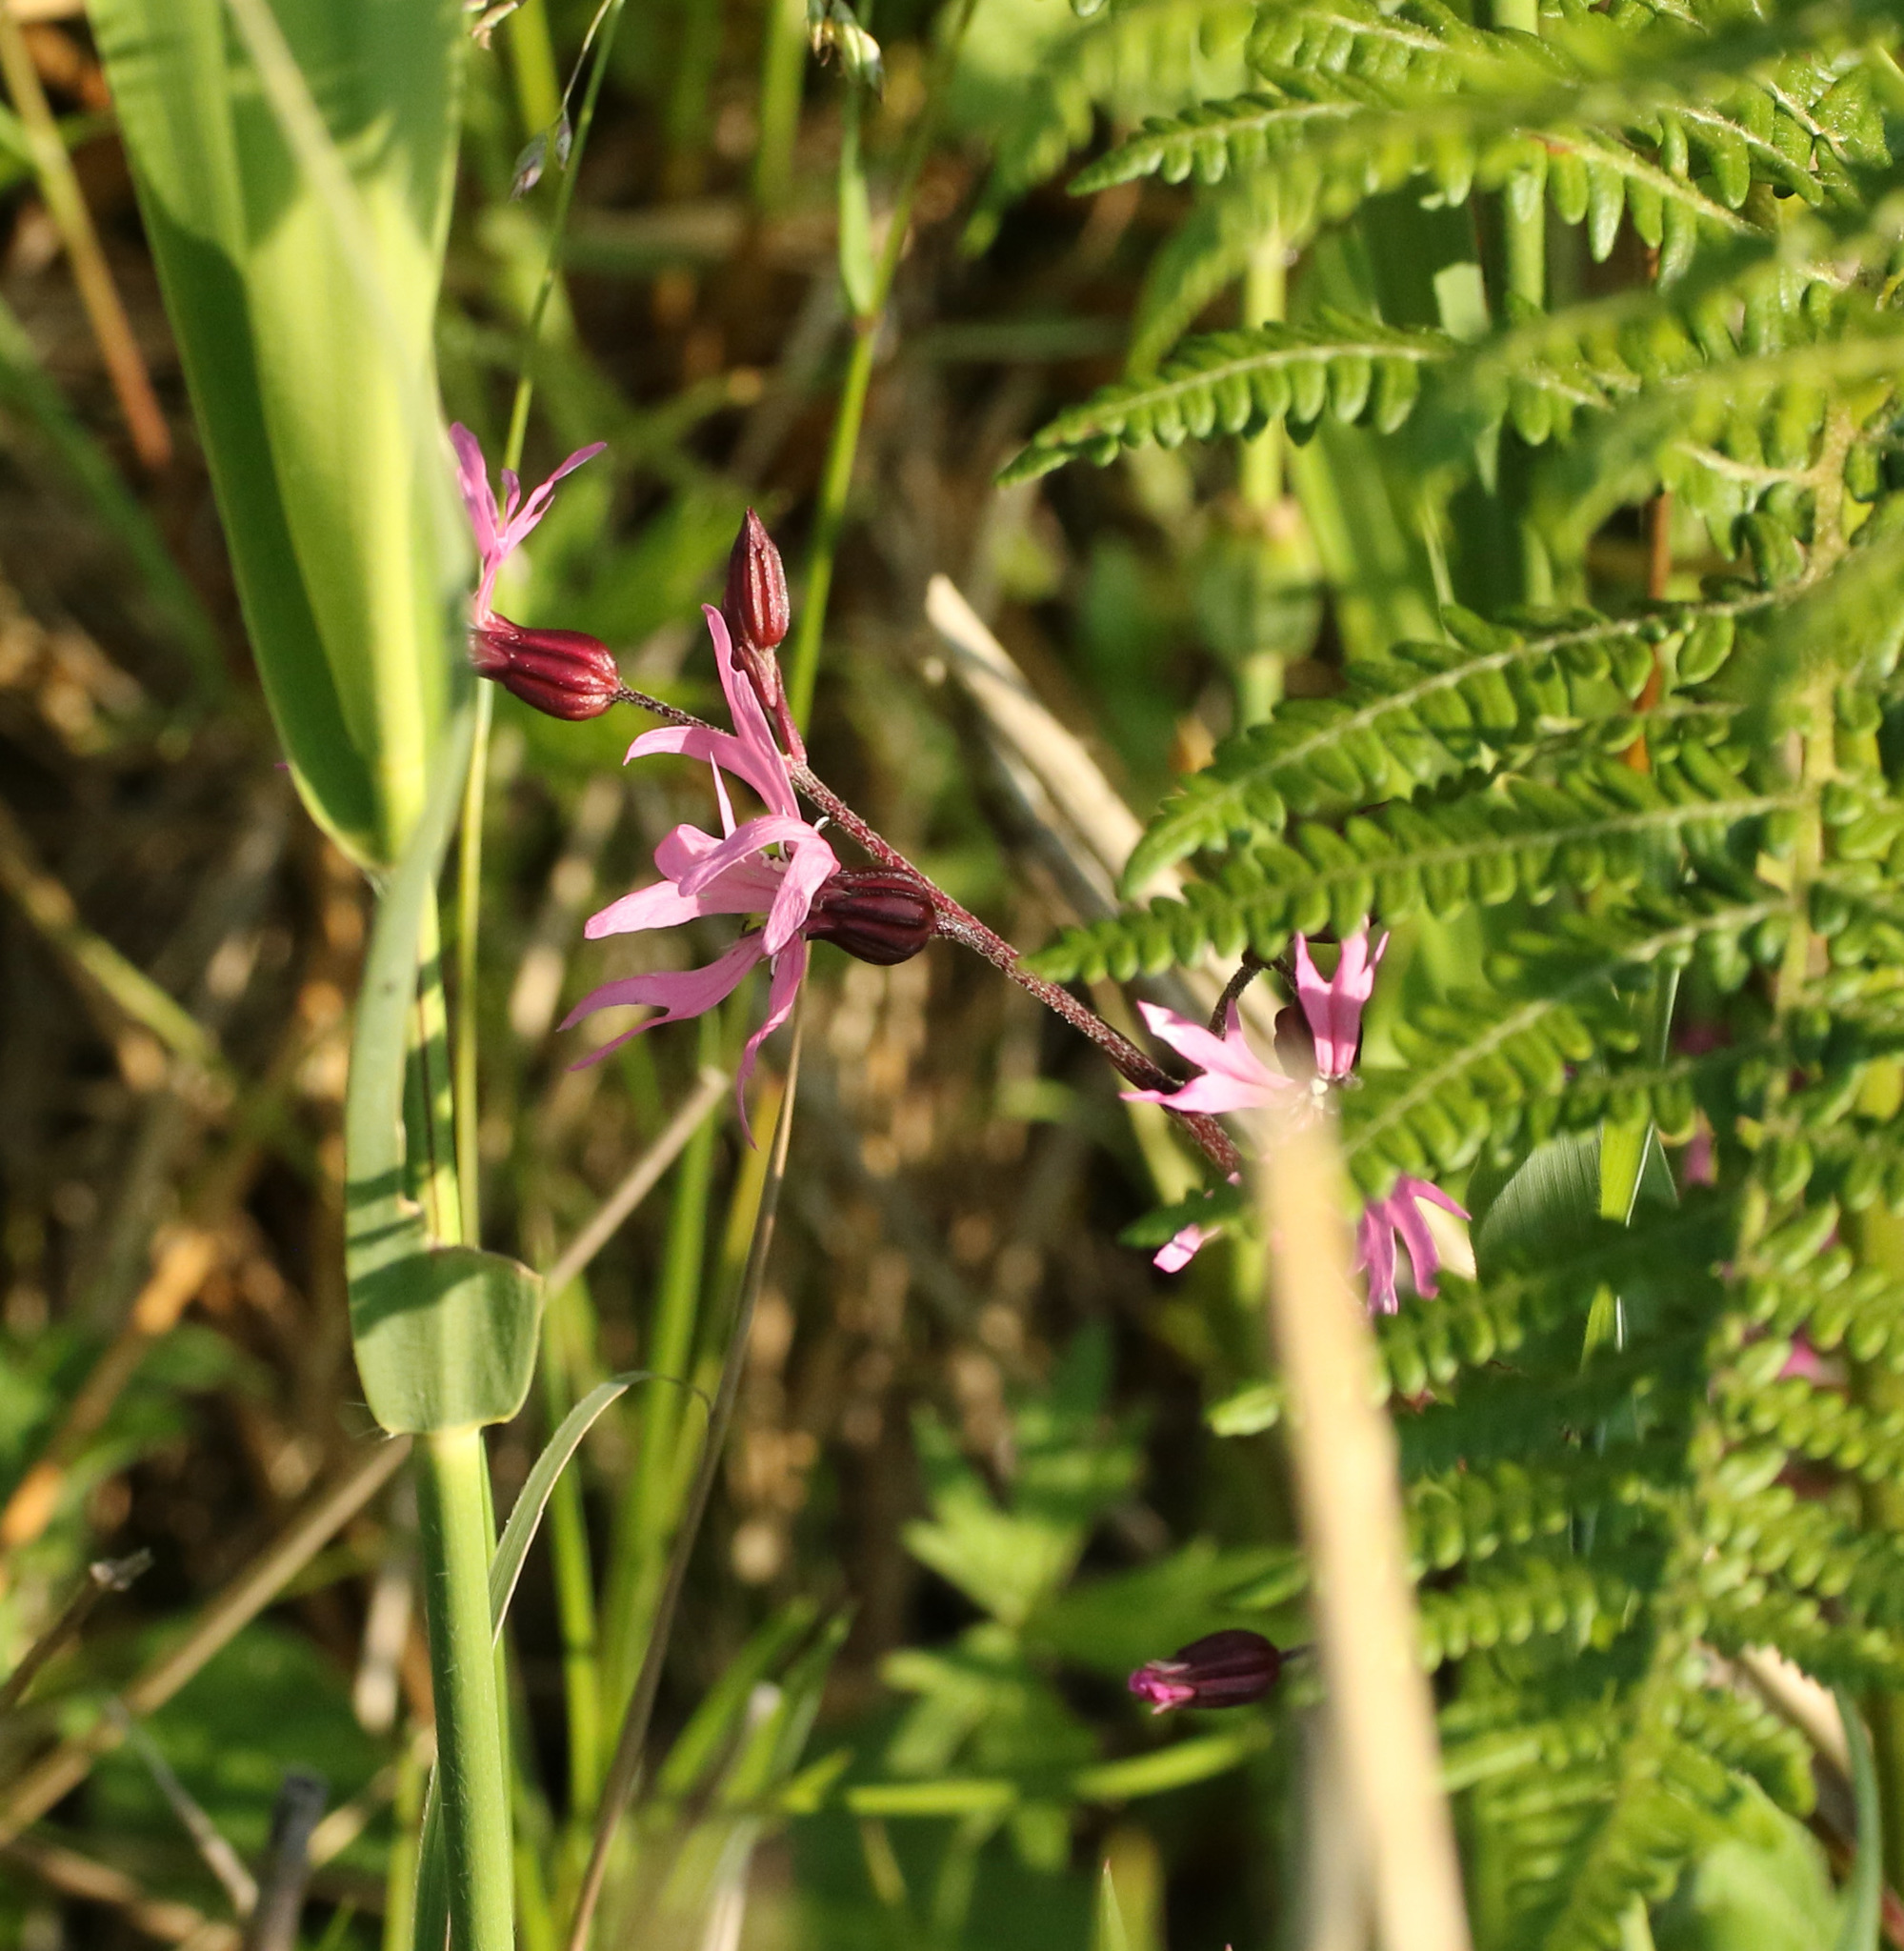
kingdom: Plantae
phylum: Tracheophyta
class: Magnoliopsida
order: Caryophyllales
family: Caryophyllaceae
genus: Silene
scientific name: Silene flos-cuculi
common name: Ragged-robin
